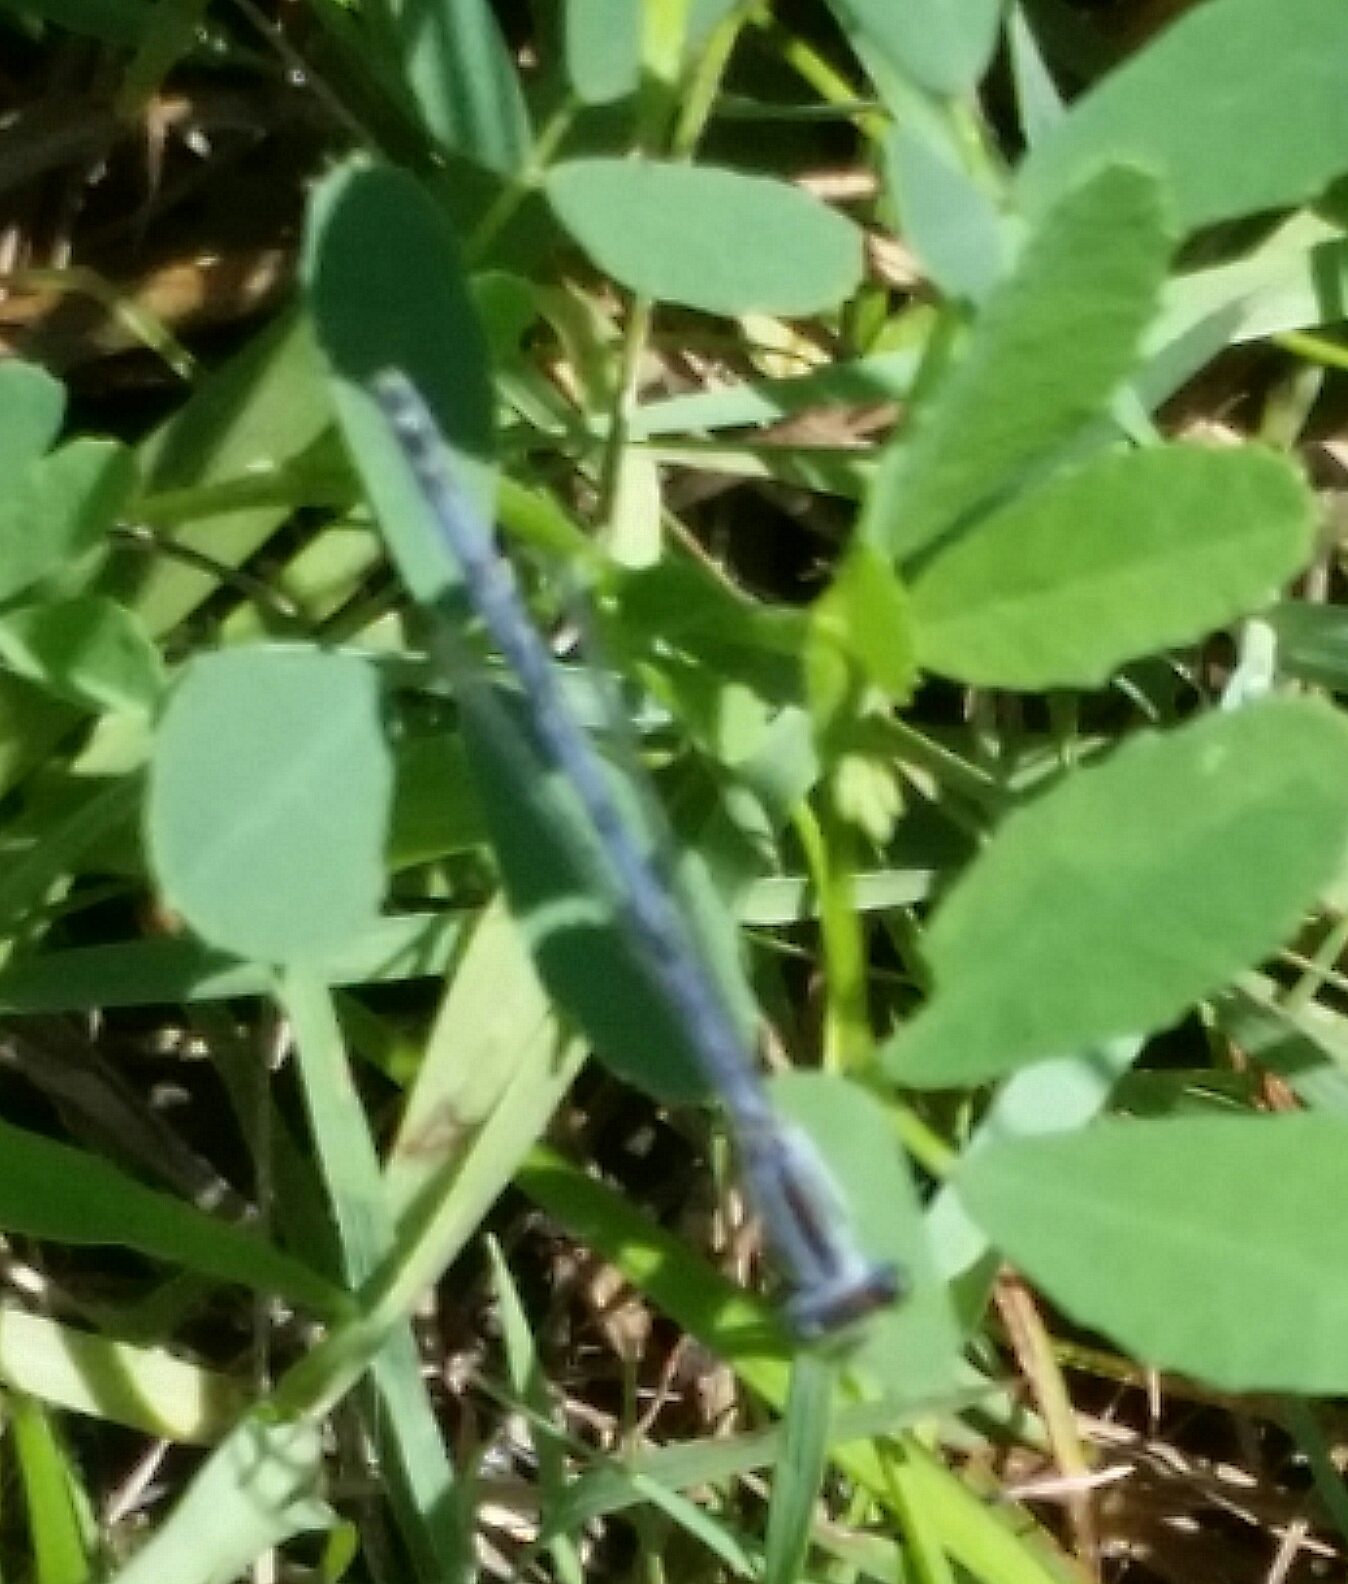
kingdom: Animalia
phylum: Arthropoda
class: Insecta
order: Odonata
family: Coenagrionidae
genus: Ischnura
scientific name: Ischnura verticalis
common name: Eastern forktail
